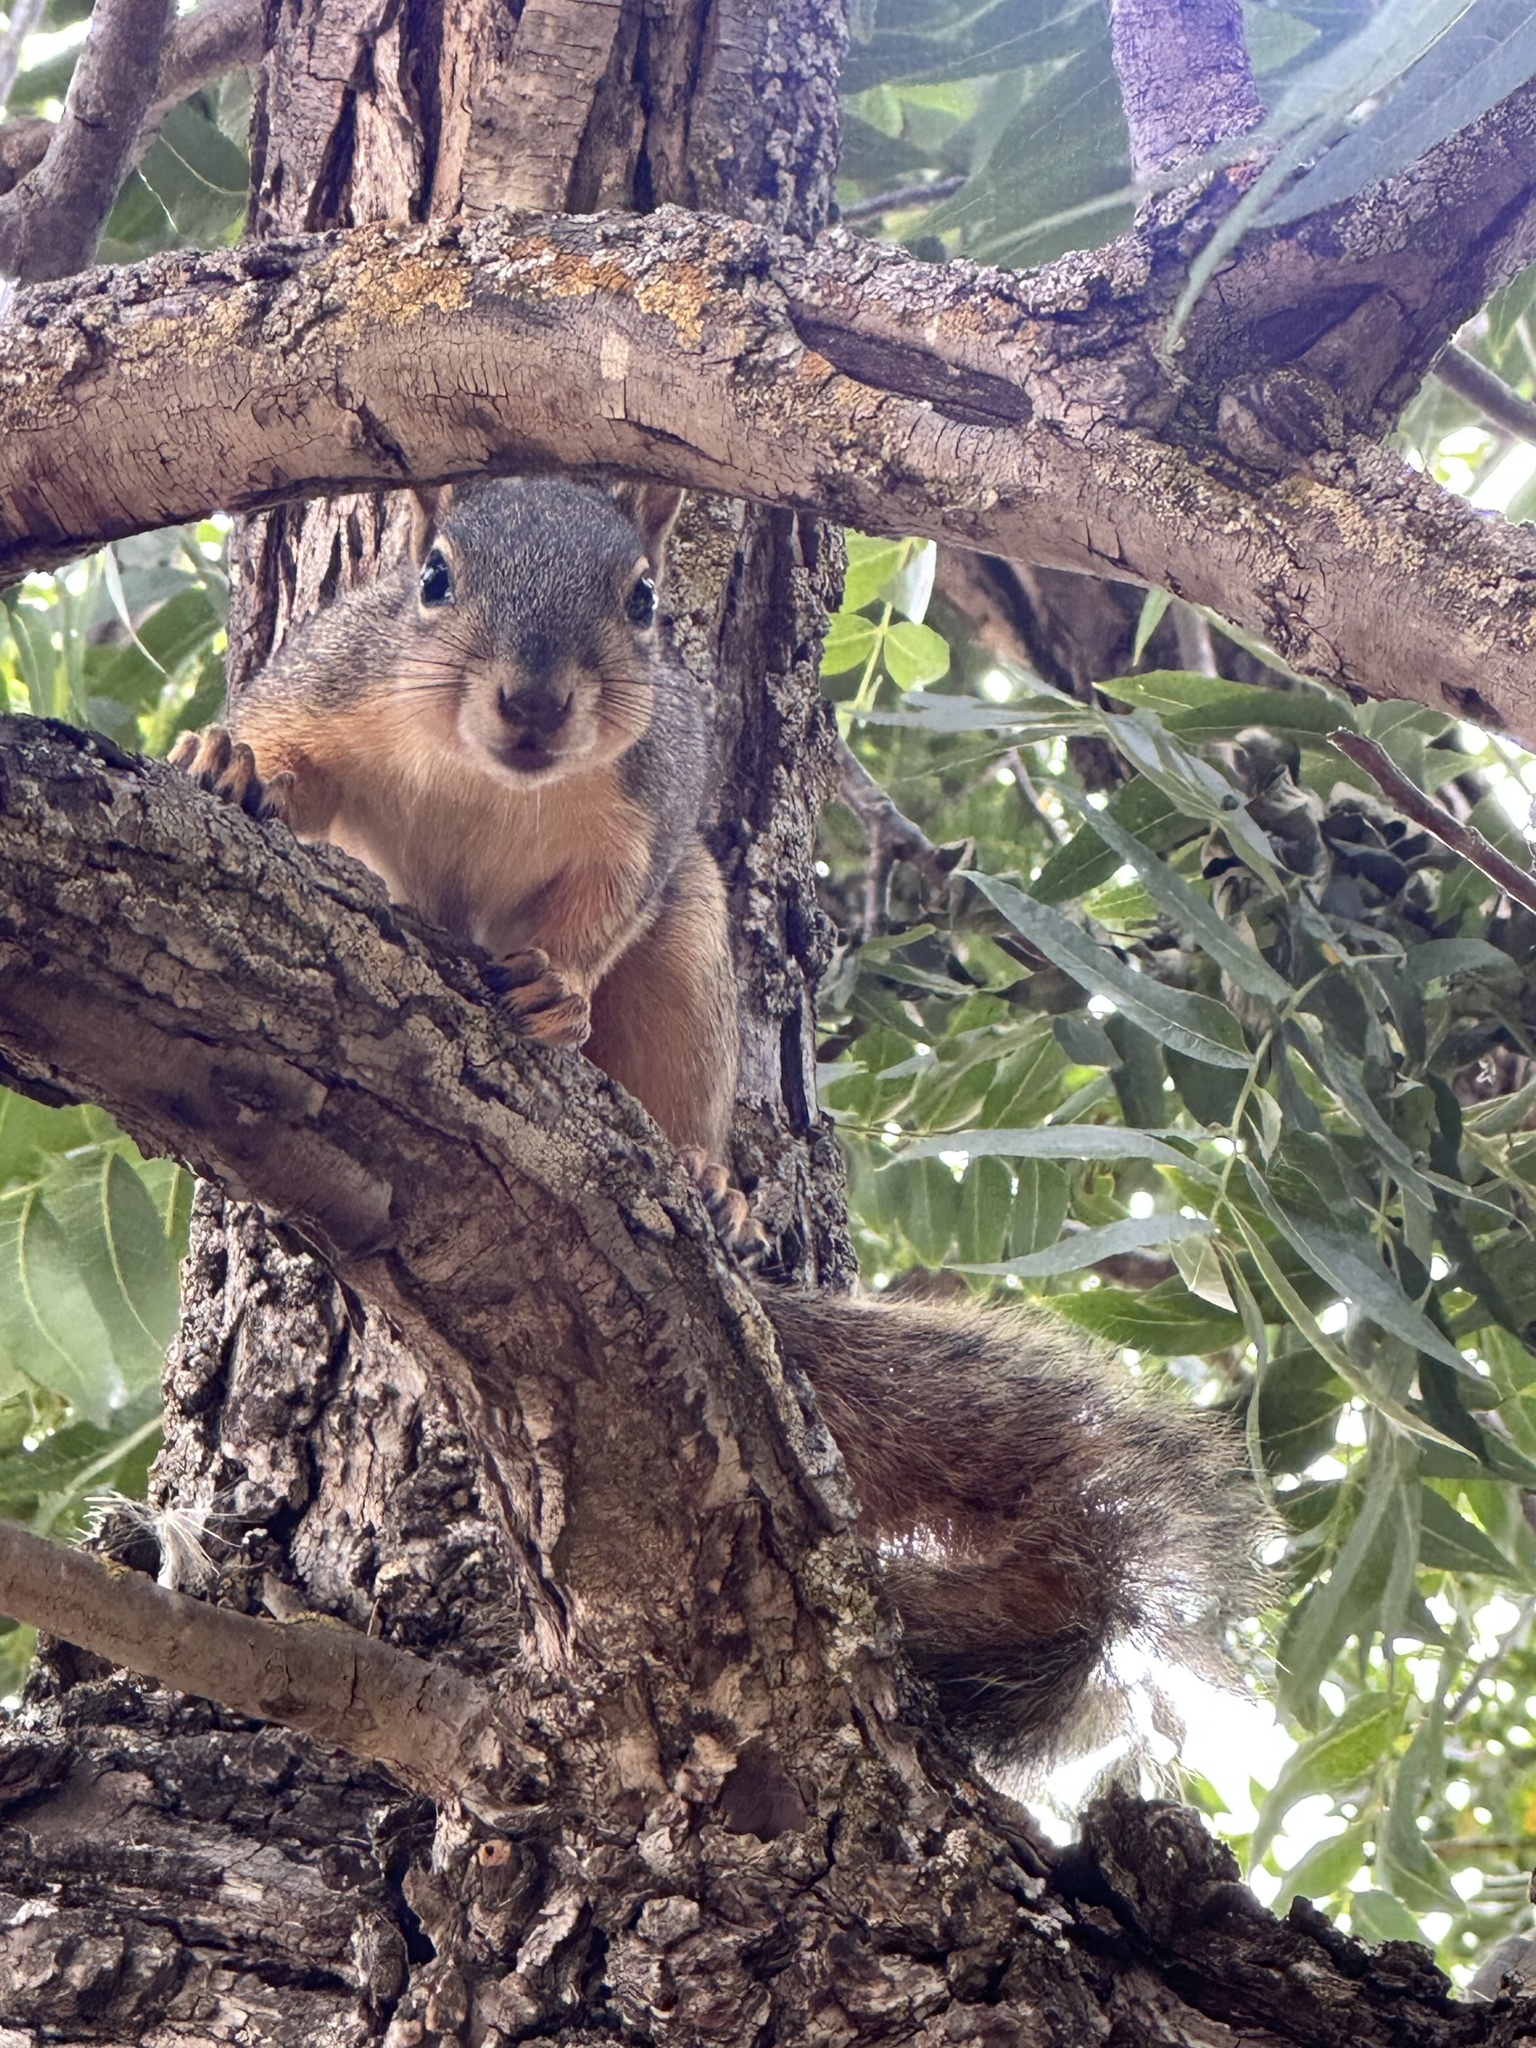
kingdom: Animalia
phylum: Chordata
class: Mammalia
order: Rodentia
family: Sciuridae
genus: Sciurus
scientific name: Sciurus niger
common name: Fox squirrel
